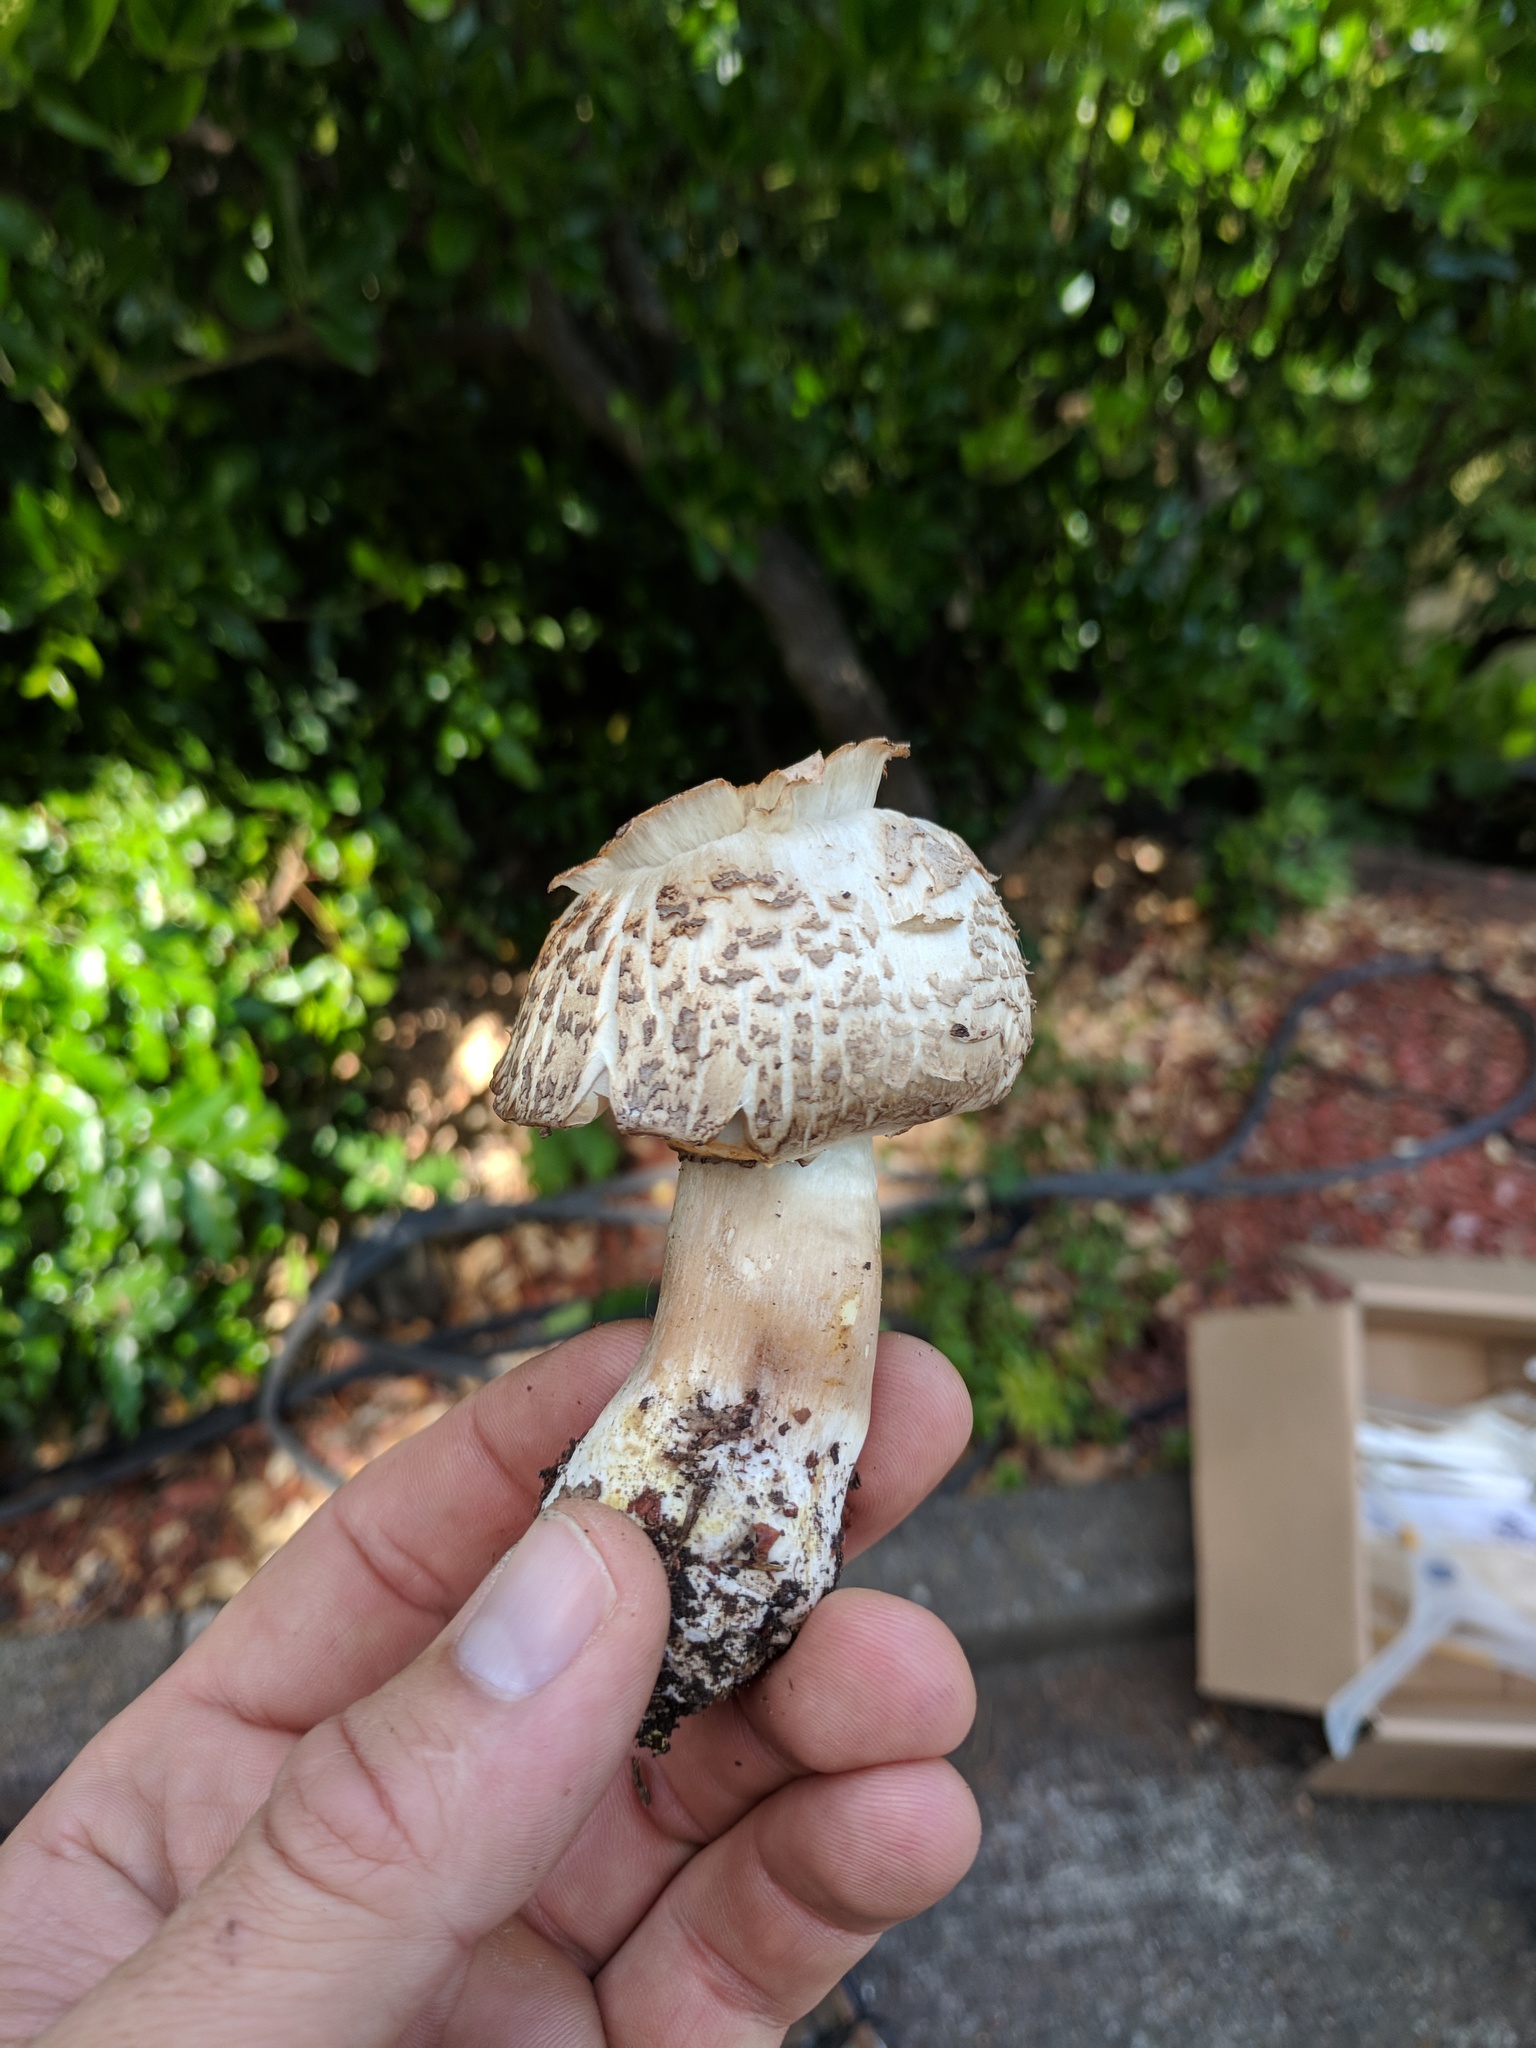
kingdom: Fungi
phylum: Basidiomycota
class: Agaricomycetes
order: Agaricales
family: Agaricaceae
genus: Agaricus
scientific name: Agaricus xanthodermus
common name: Yellow stainer
